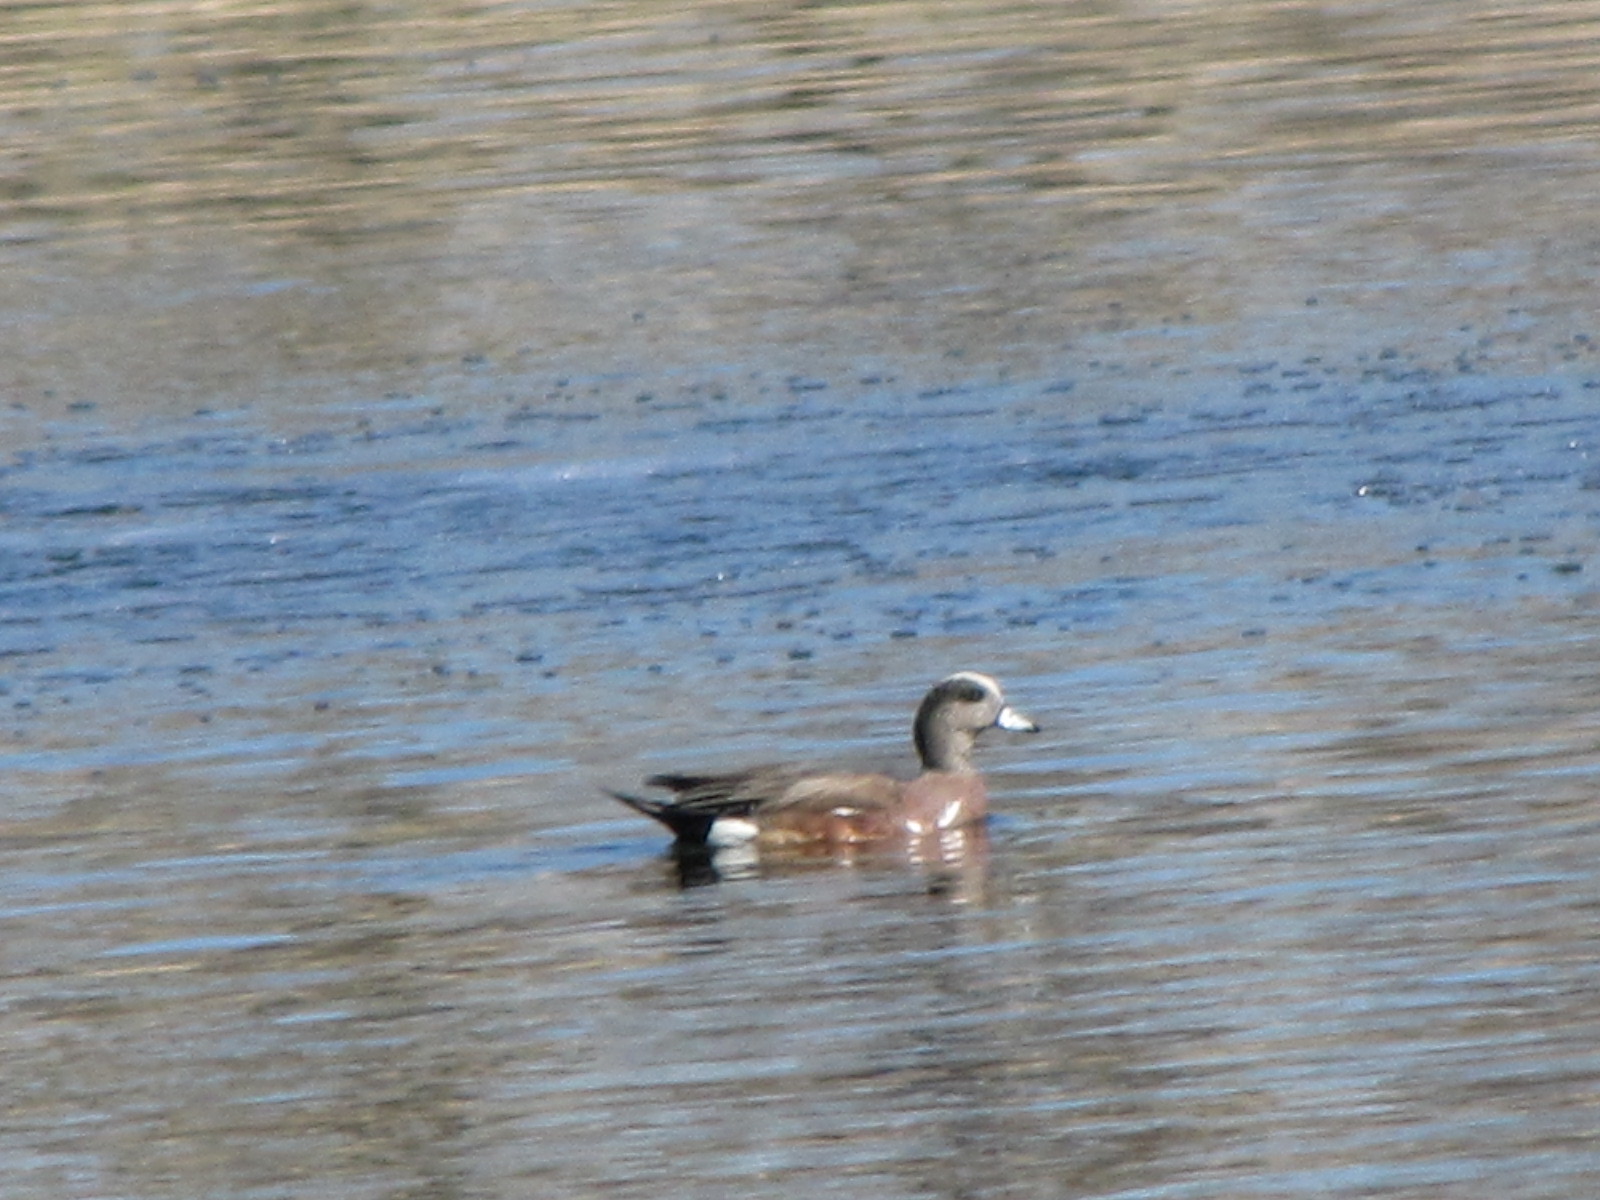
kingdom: Animalia
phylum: Chordata
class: Aves
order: Anseriformes
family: Anatidae
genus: Mareca
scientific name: Mareca americana
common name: American wigeon
